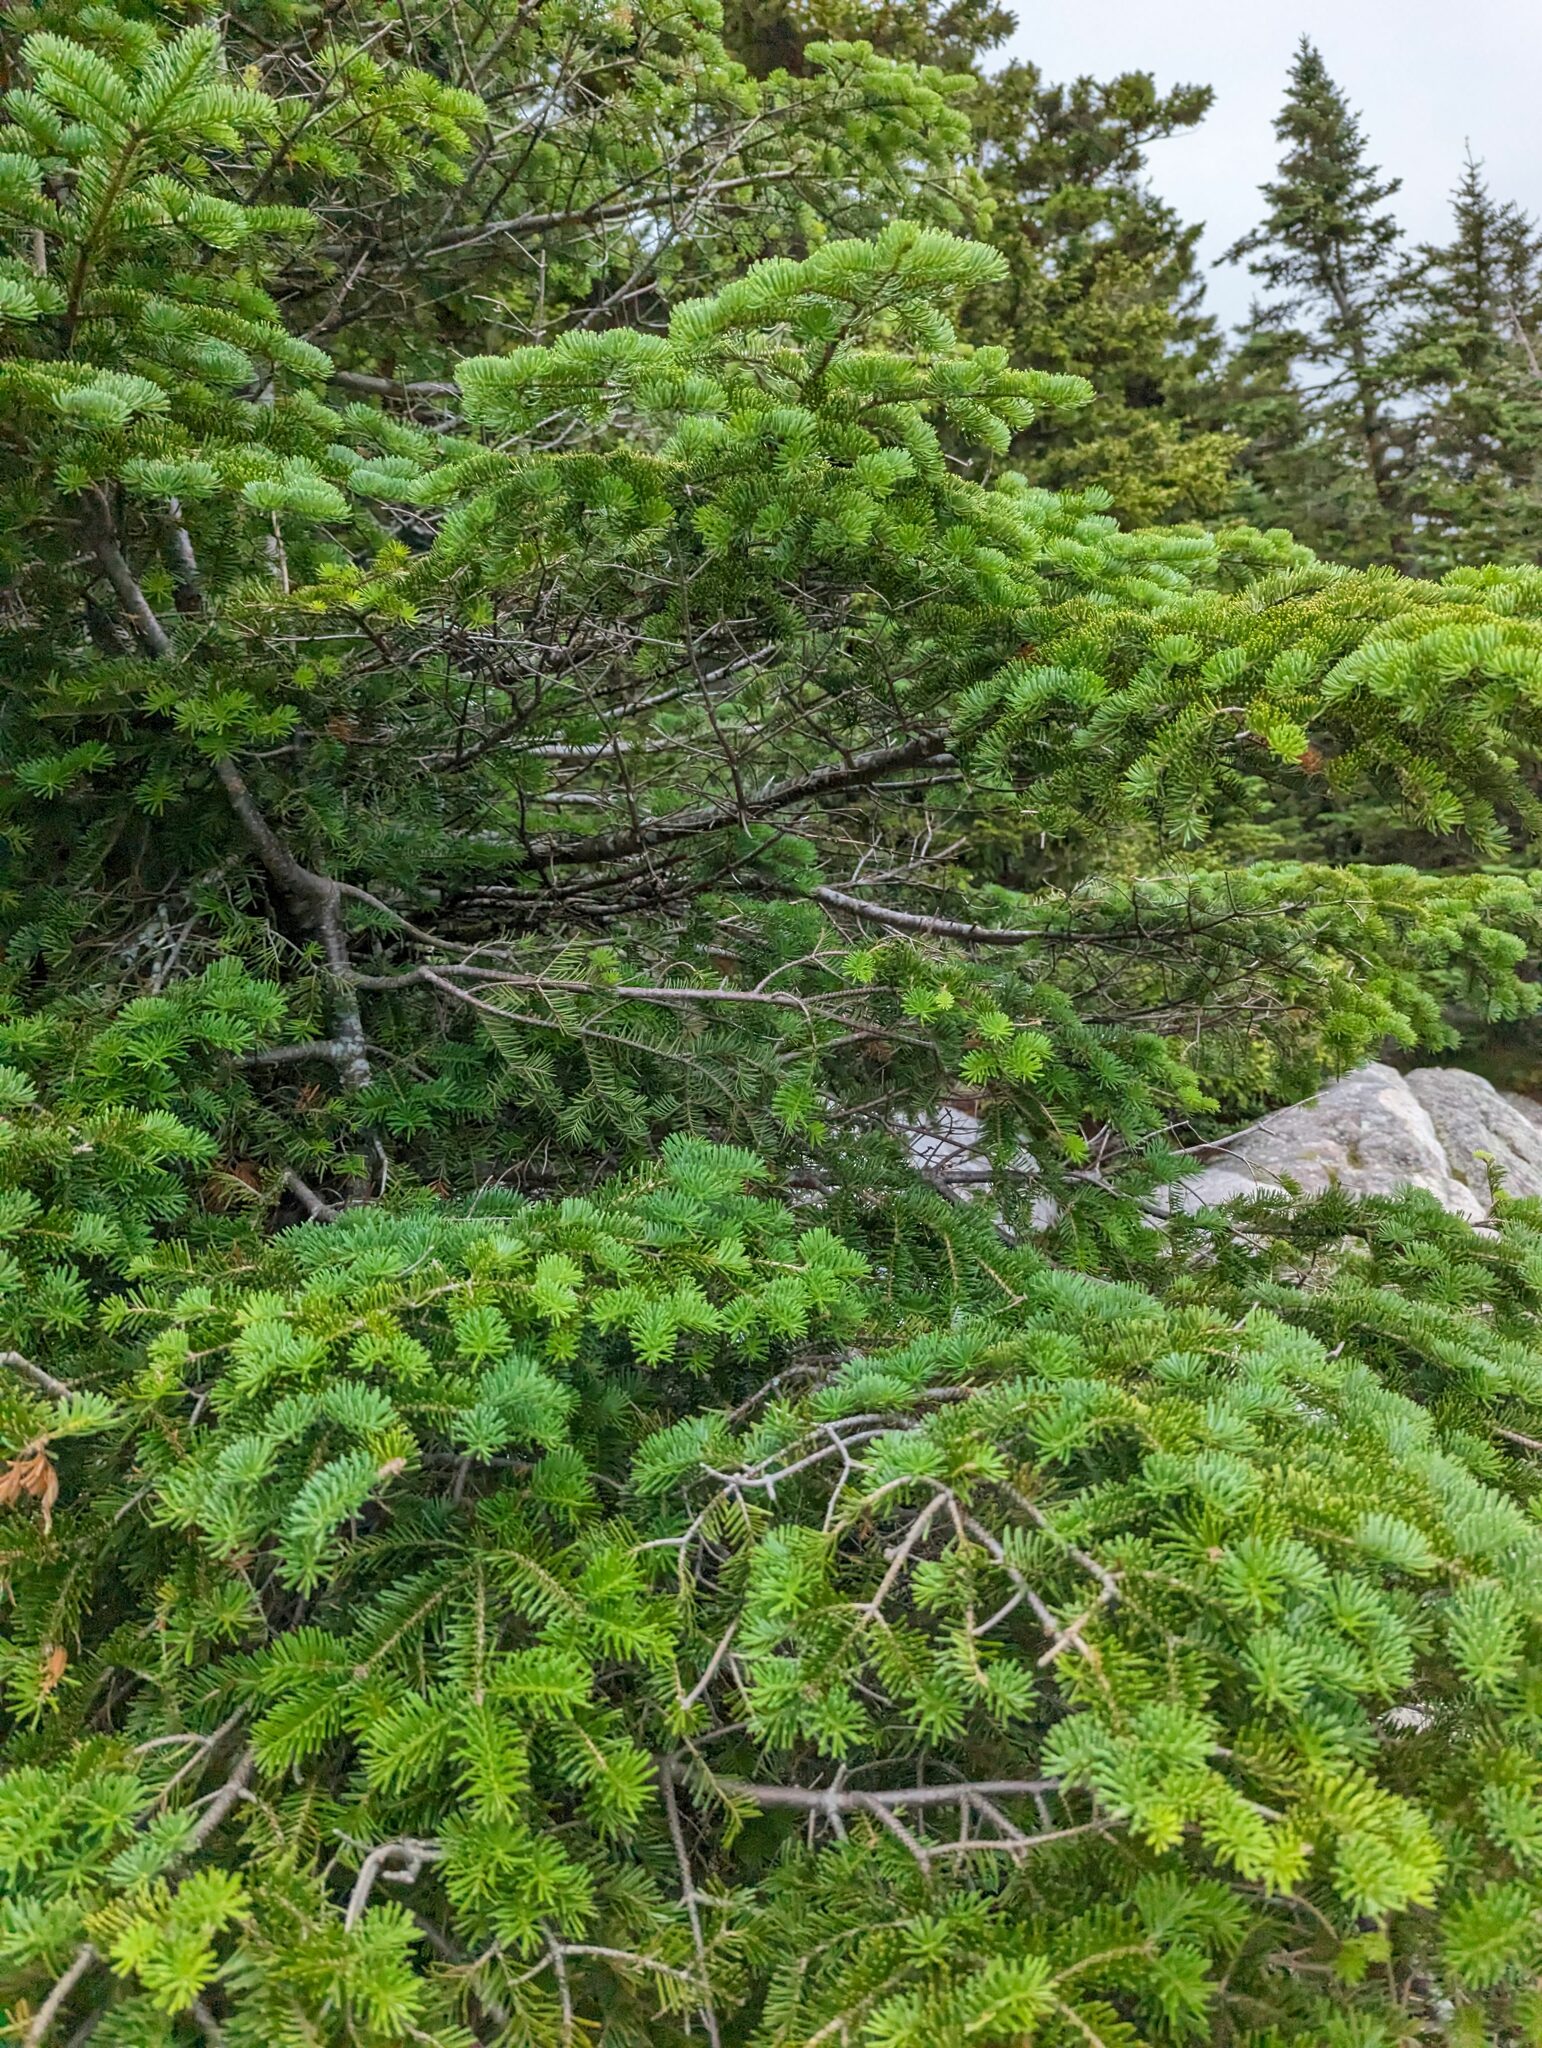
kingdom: Plantae
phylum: Tracheophyta
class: Pinopsida
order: Pinales
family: Pinaceae
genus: Abies
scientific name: Abies balsamea
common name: Balsam fir
